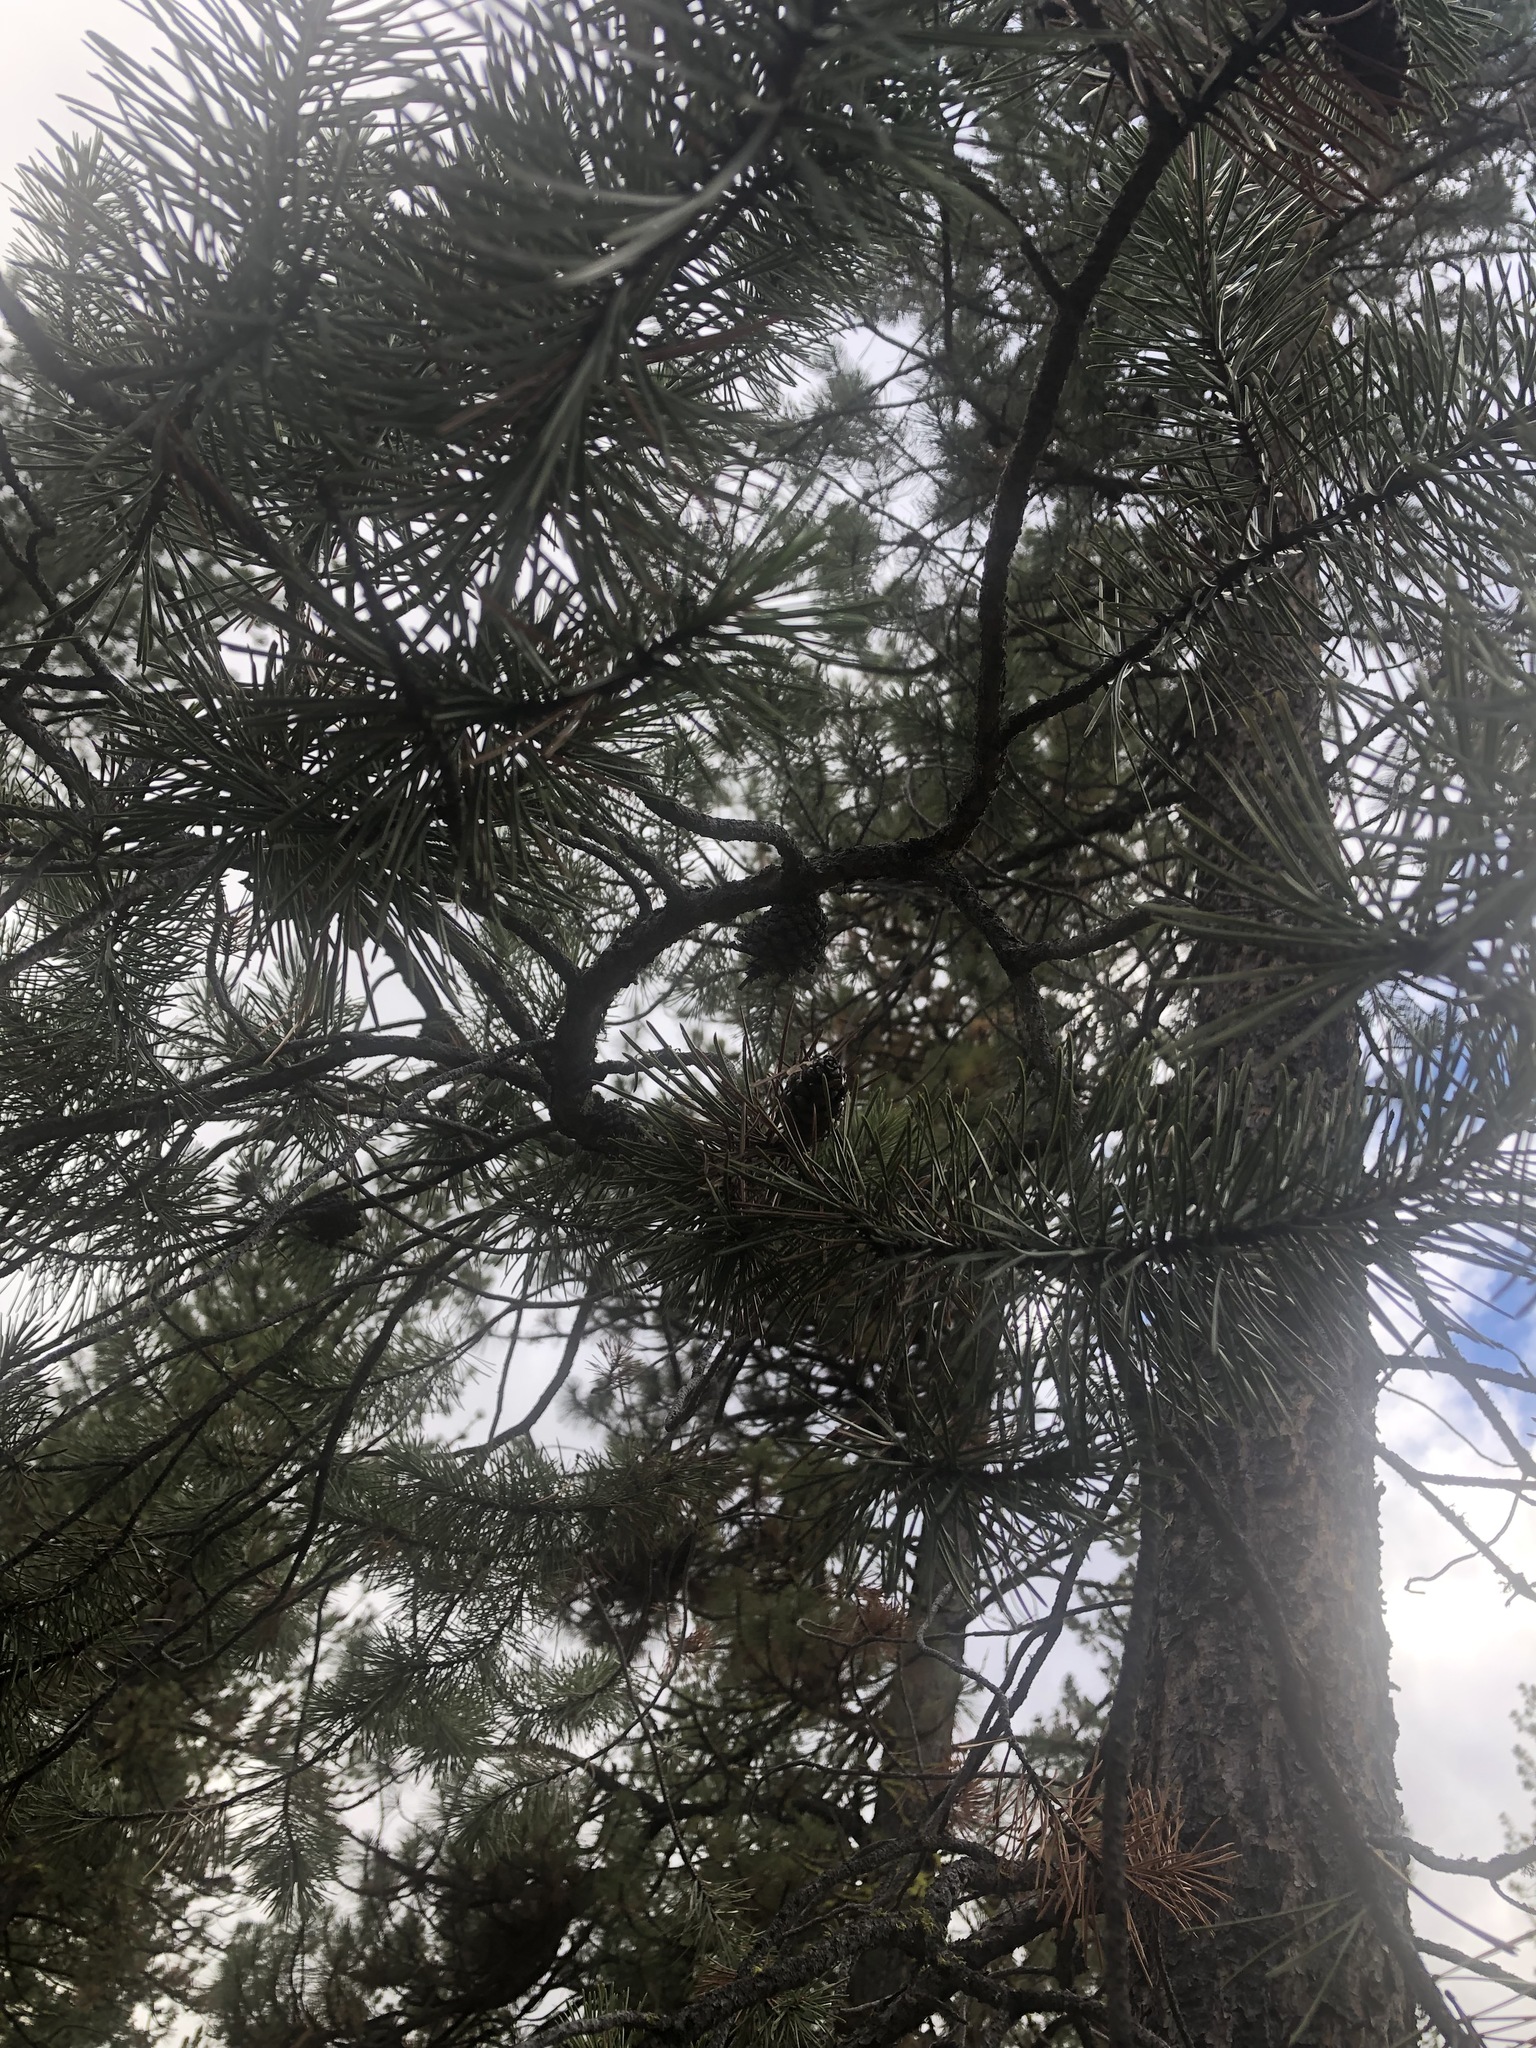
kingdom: Plantae
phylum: Tracheophyta
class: Pinopsida
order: Pinales
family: Pinaceae
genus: Pinus
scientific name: Pinus contorta
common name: Lodgepole pine
